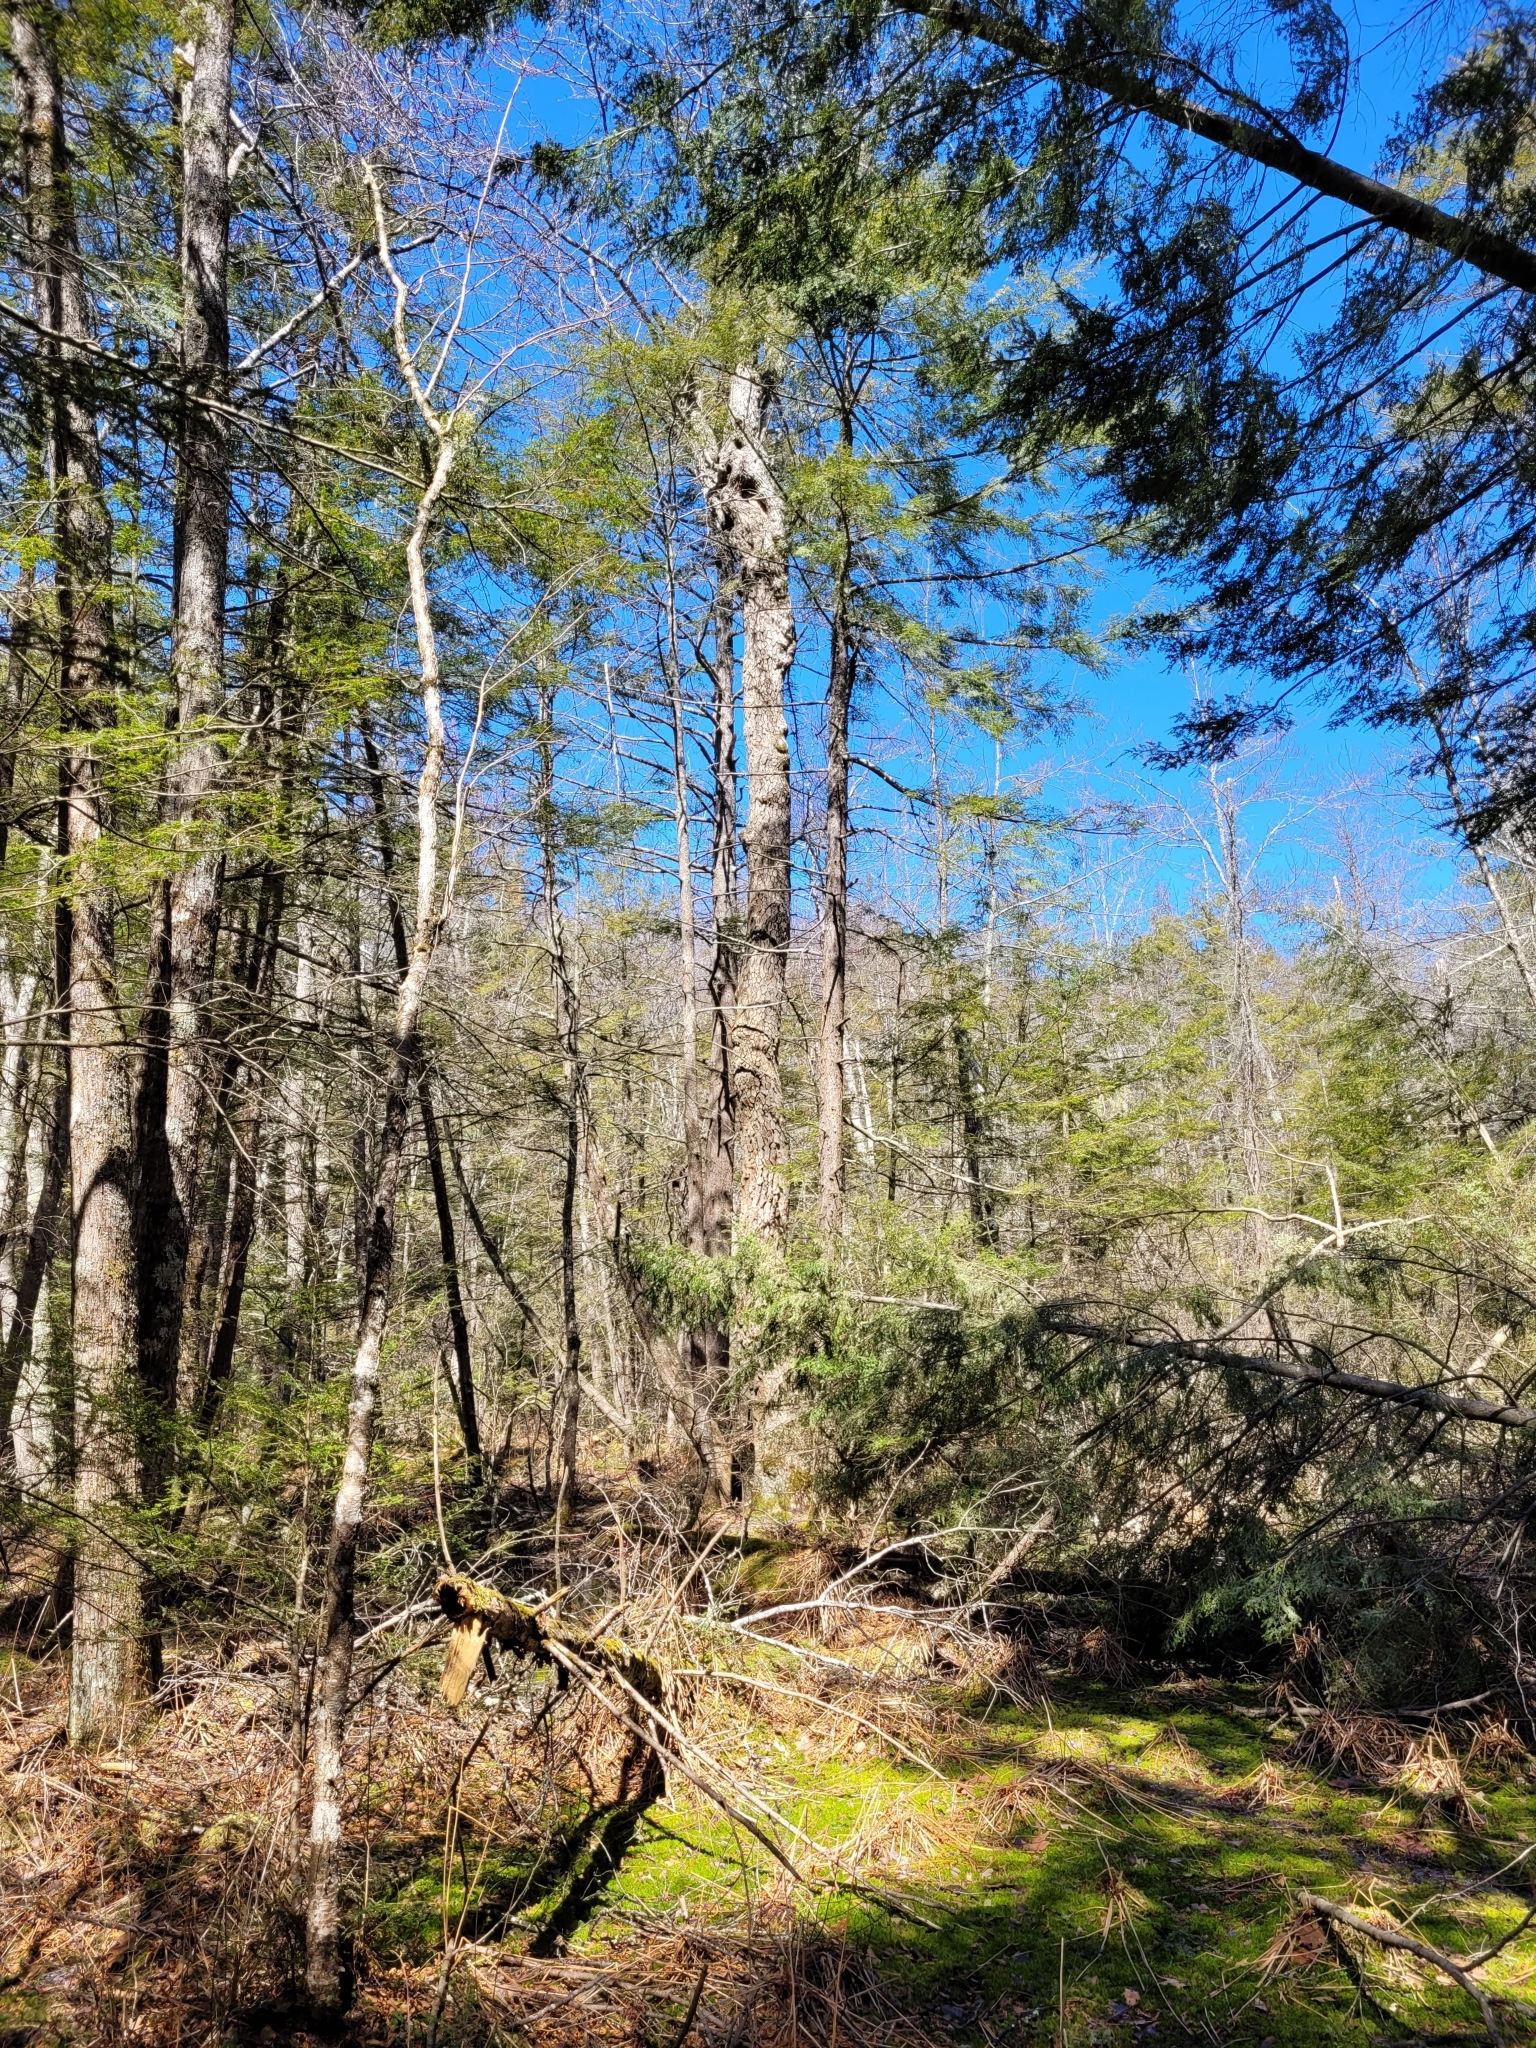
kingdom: Plantae
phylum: Tracheophyta
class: Magnoliopsida
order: Cornales
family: Nyssaceae
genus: Nyssa
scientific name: Nyssa sylvatica
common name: Black tupelo
